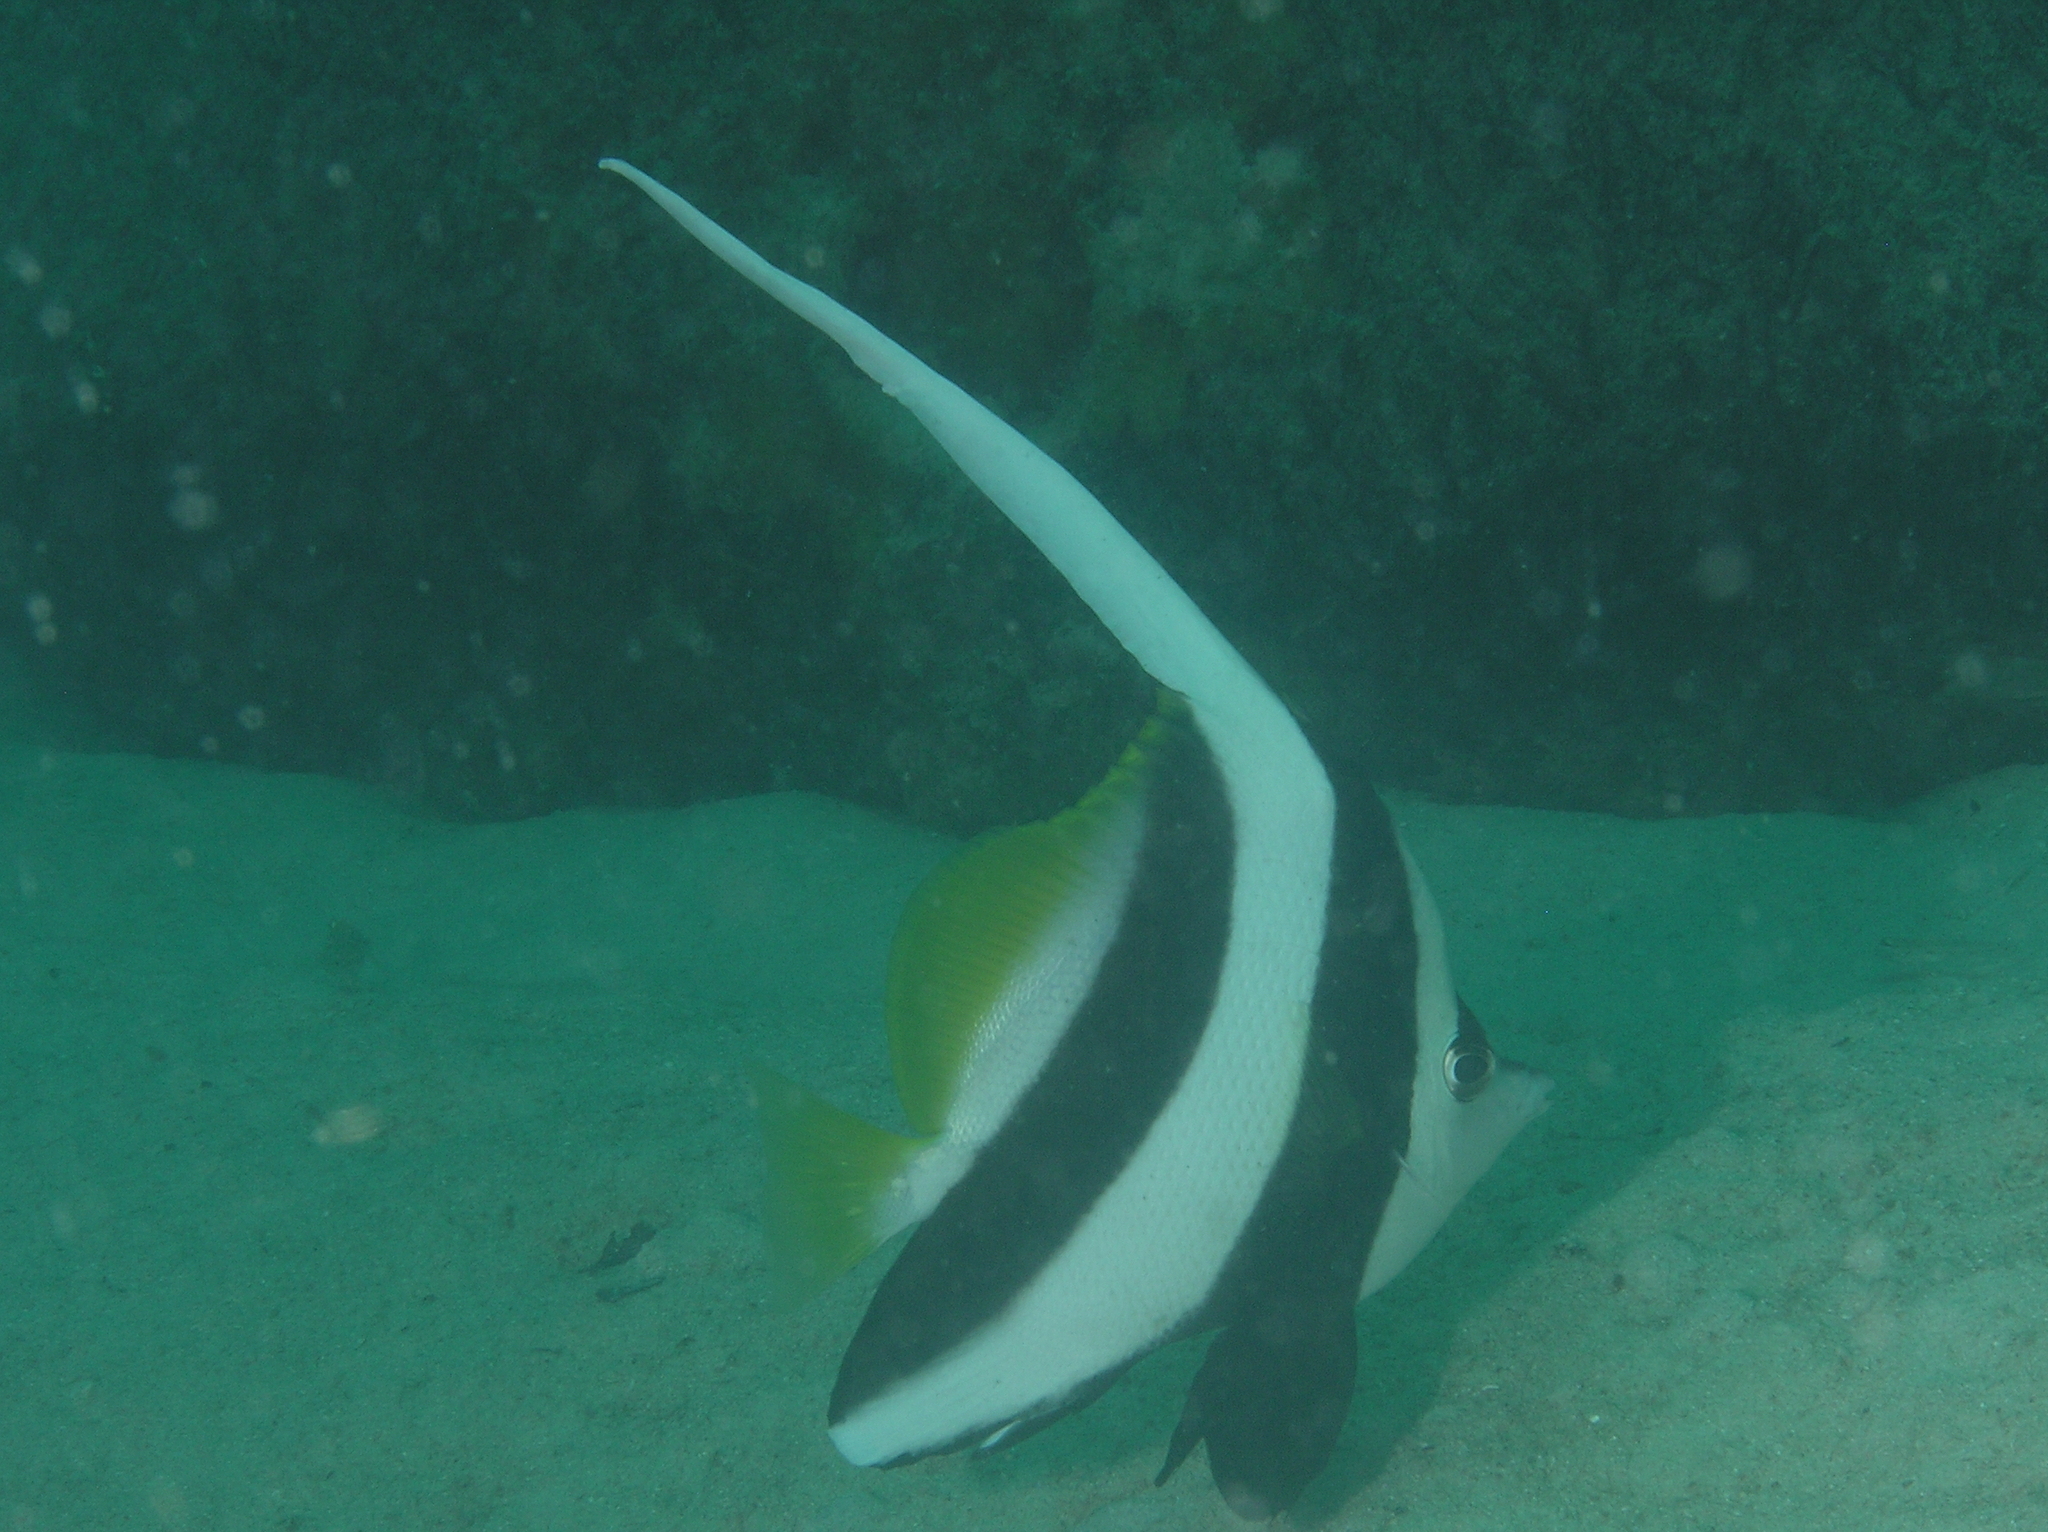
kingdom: Animalia
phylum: Chordata
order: Perciformes
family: Chaetodontidae
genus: Heniochus
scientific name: Heniochus acuminatus
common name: Pennant coralfish
